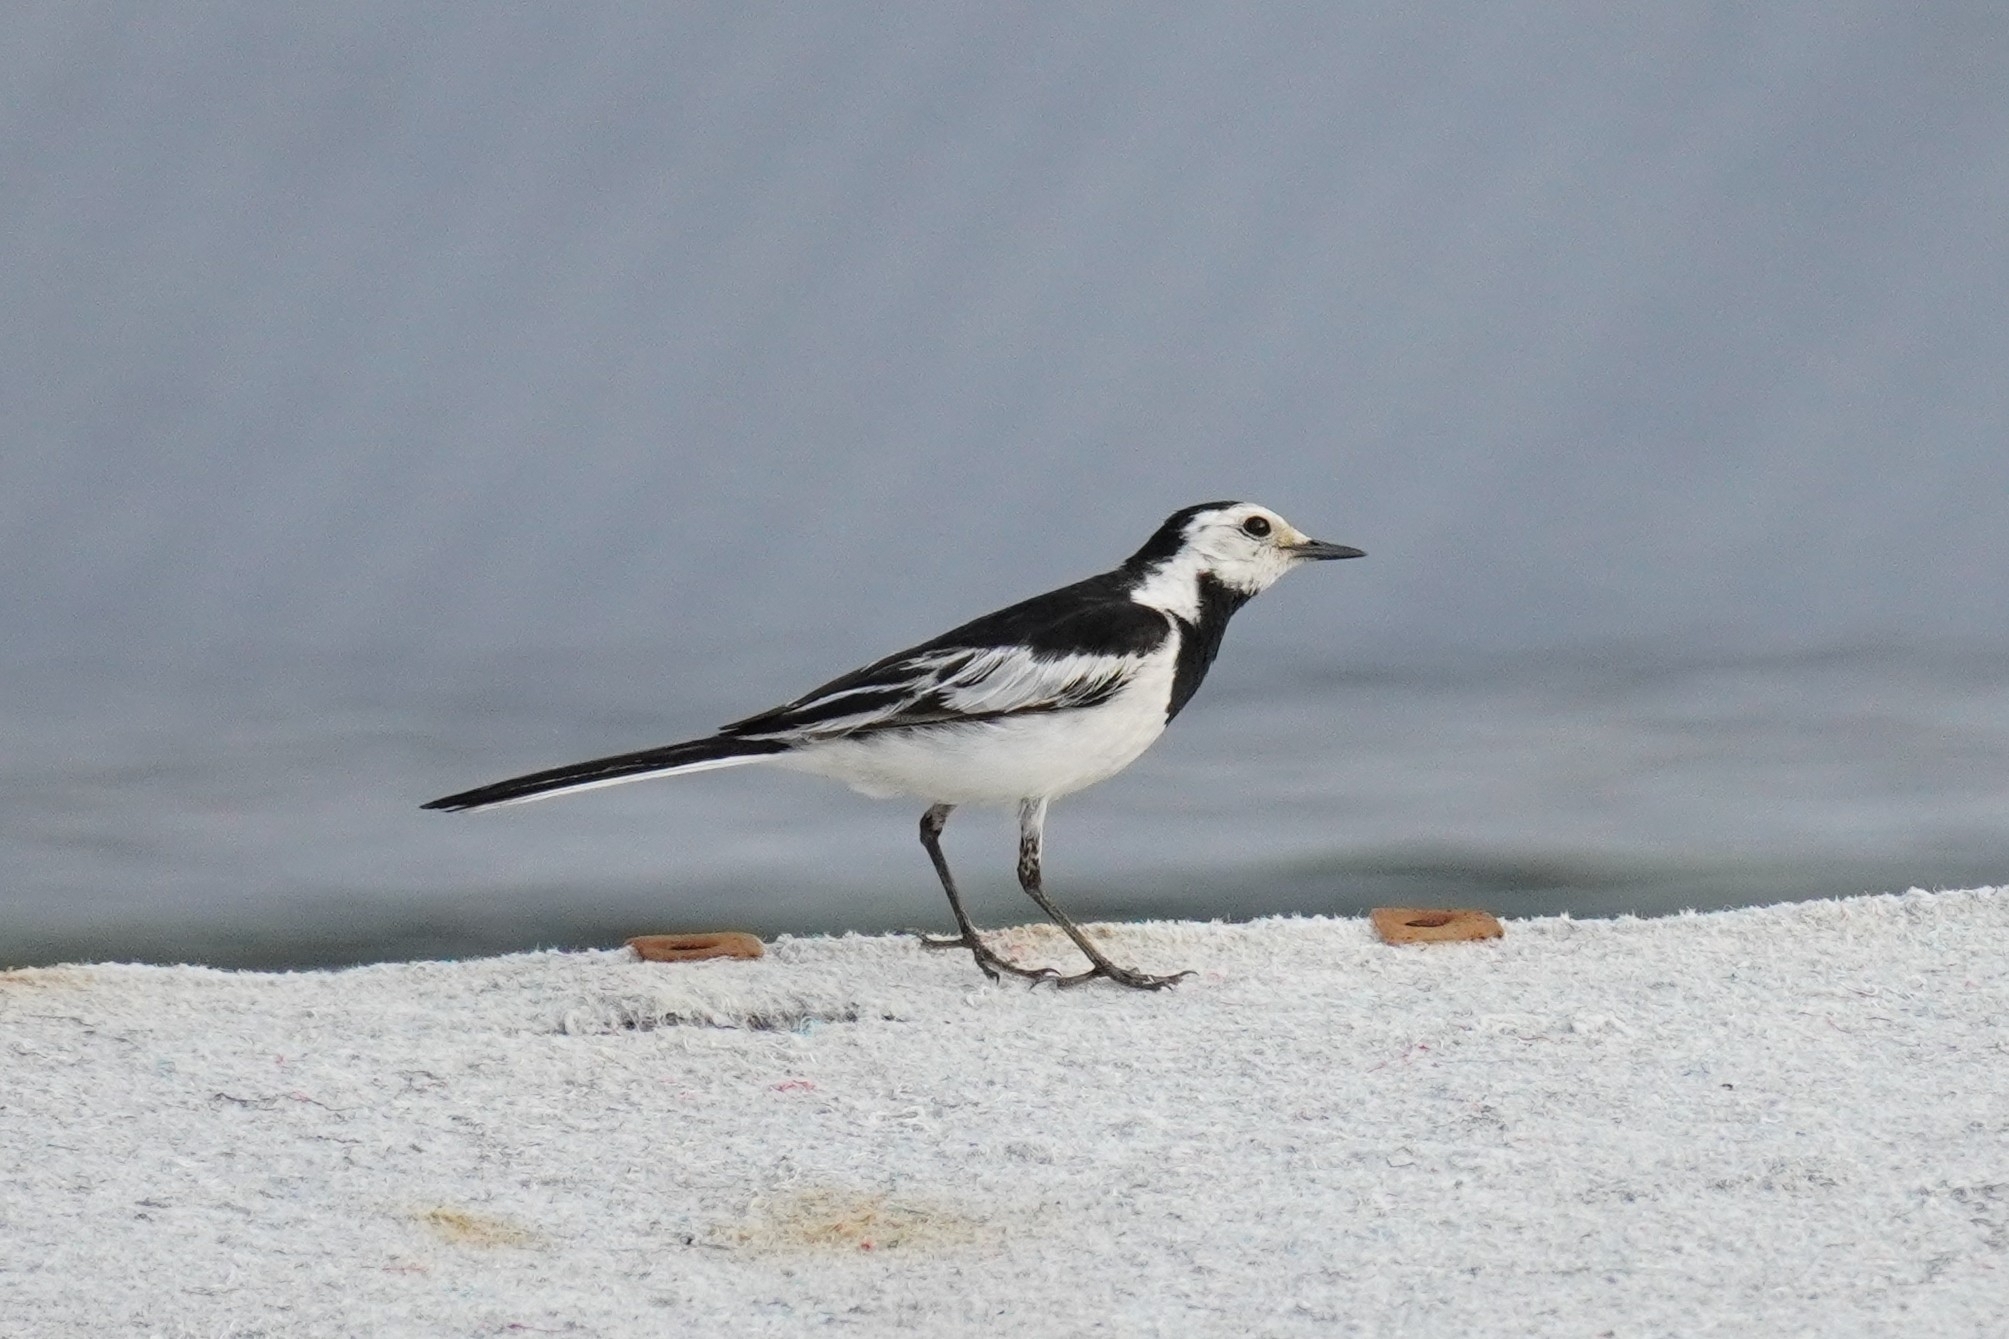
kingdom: Animalia
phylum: Chordata
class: Aves
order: Passeriformes
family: Motacillidae
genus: Motacilla
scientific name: Motacilla alba
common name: White wagtail
